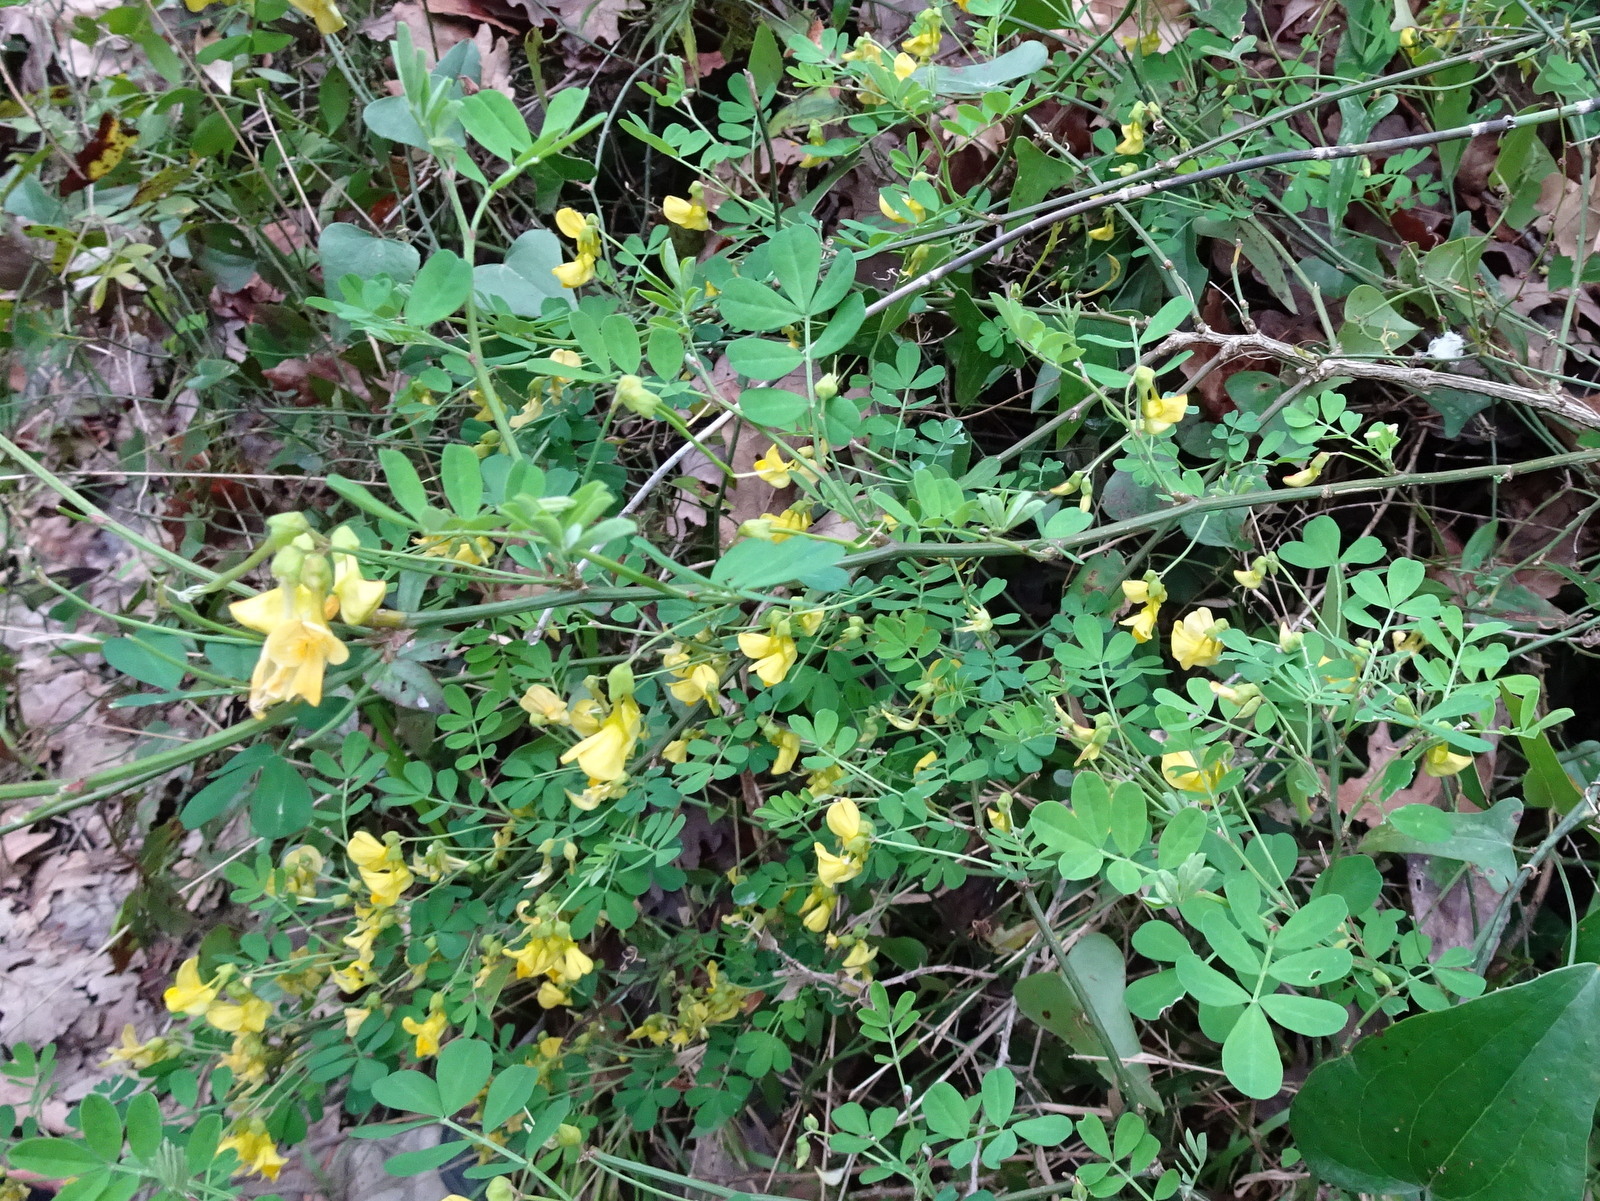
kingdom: Plantae
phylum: Tracheophyta
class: Magnoliopsida
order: Fabales
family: Fabaceae
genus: Hippocrepis
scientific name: Hippocrepis emerus
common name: Scorpion senna
